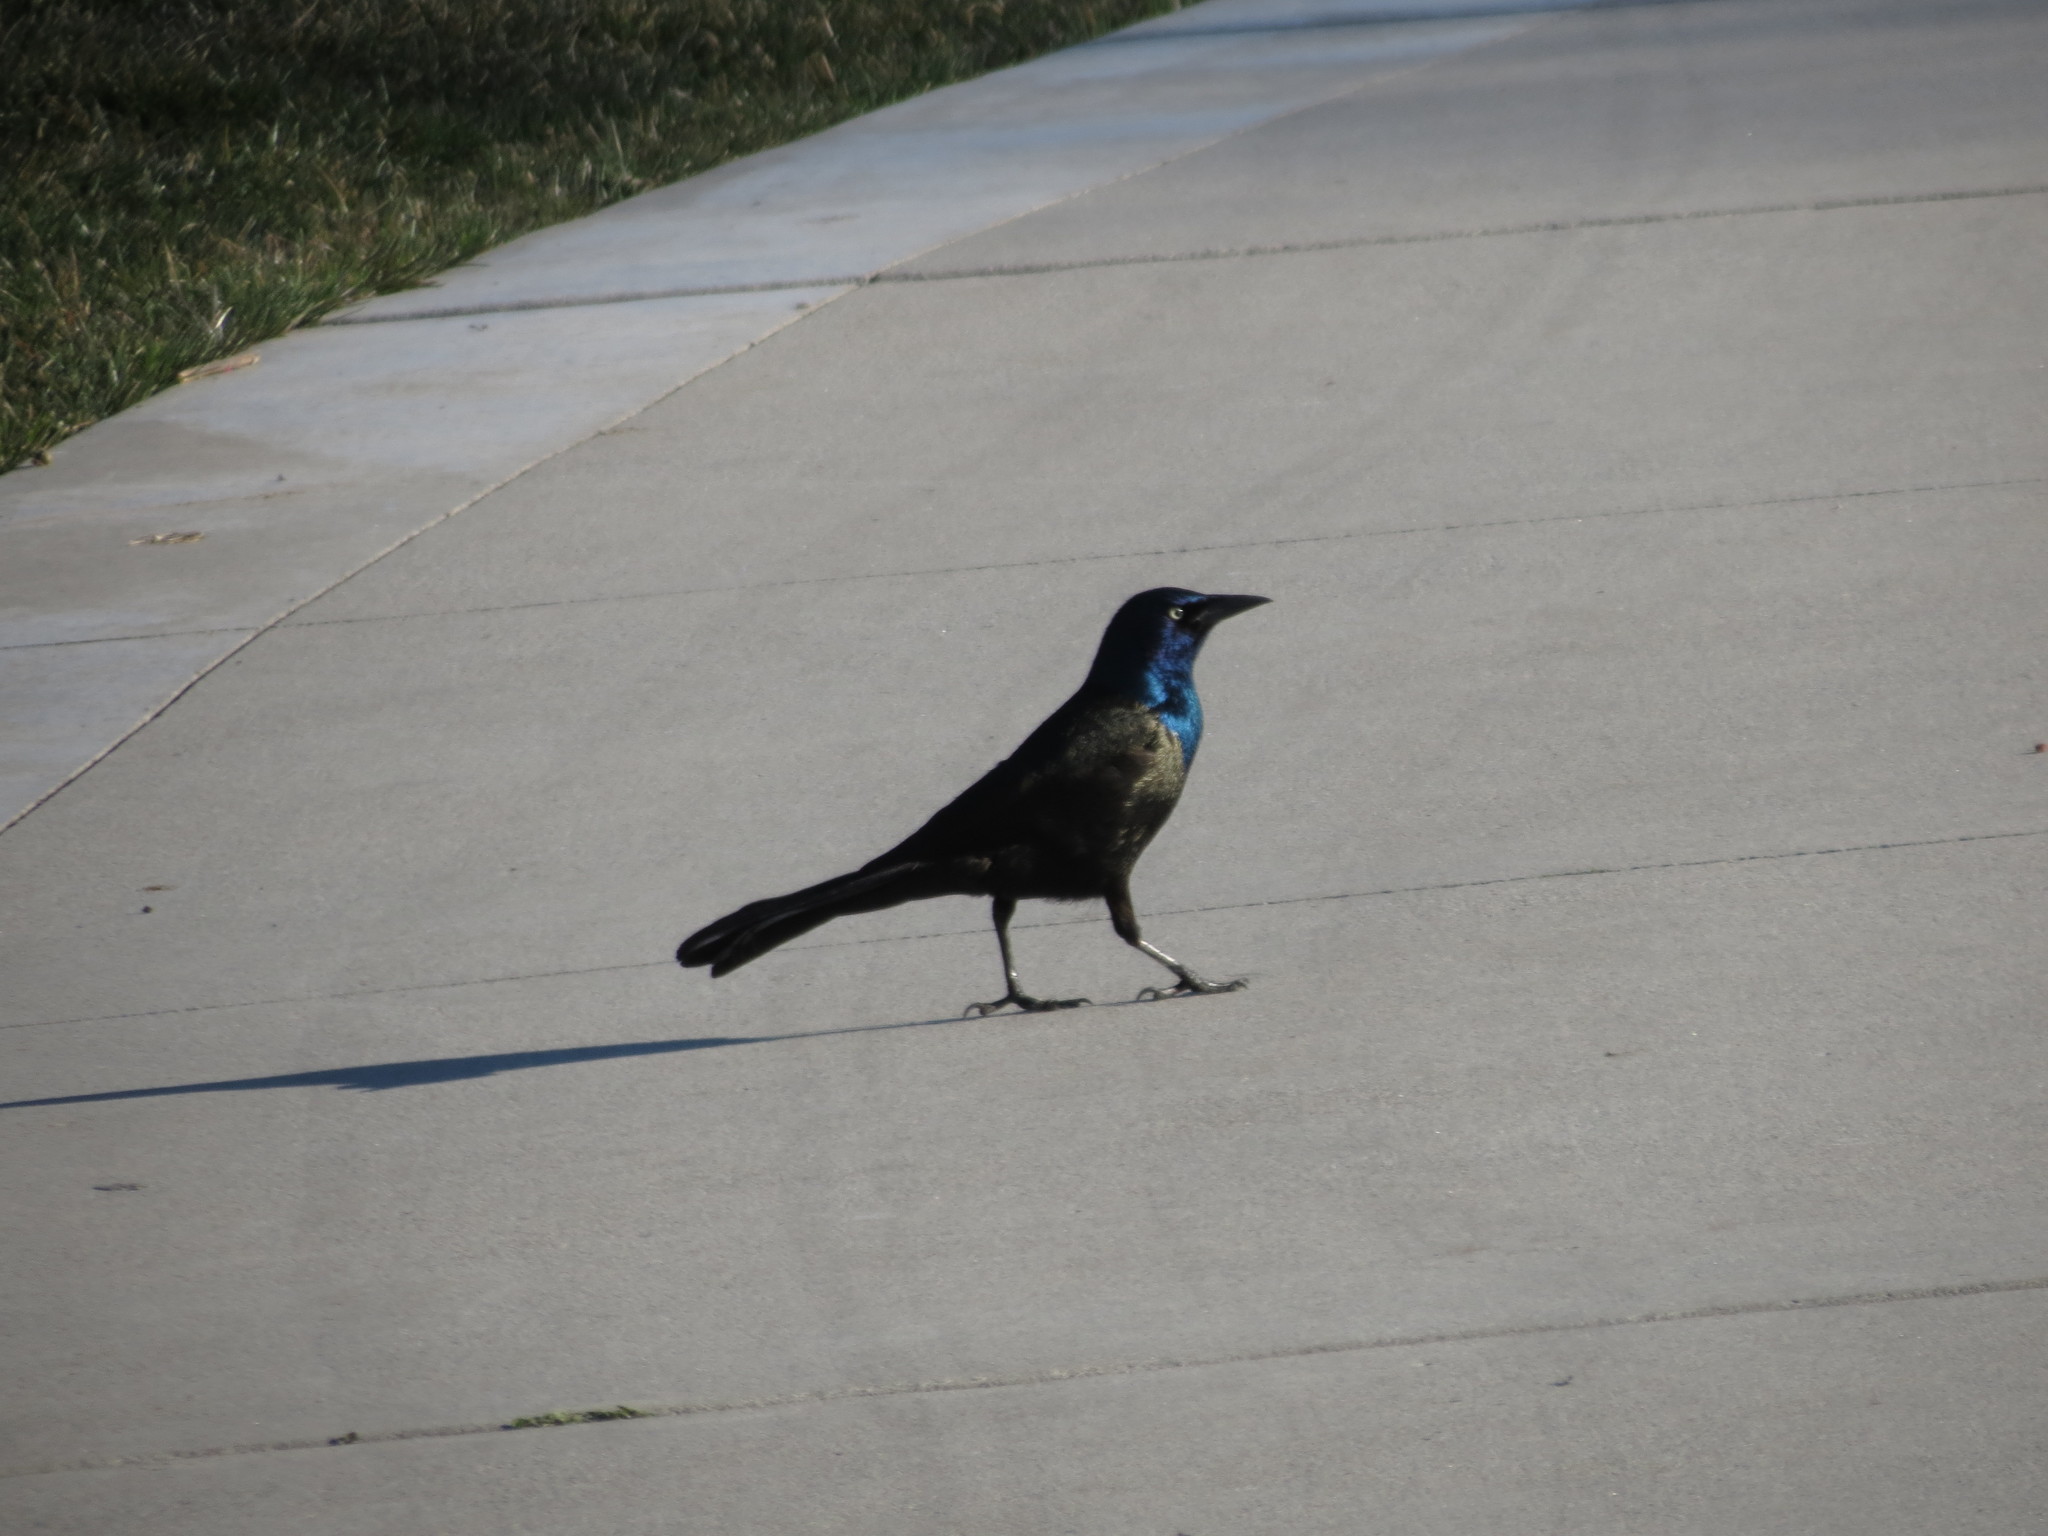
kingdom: Animalia
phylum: Chordata
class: Aves
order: Passeriformes
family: Icteridae
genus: Quiscalus
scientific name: Quiscalus quiscula
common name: Common grackle
